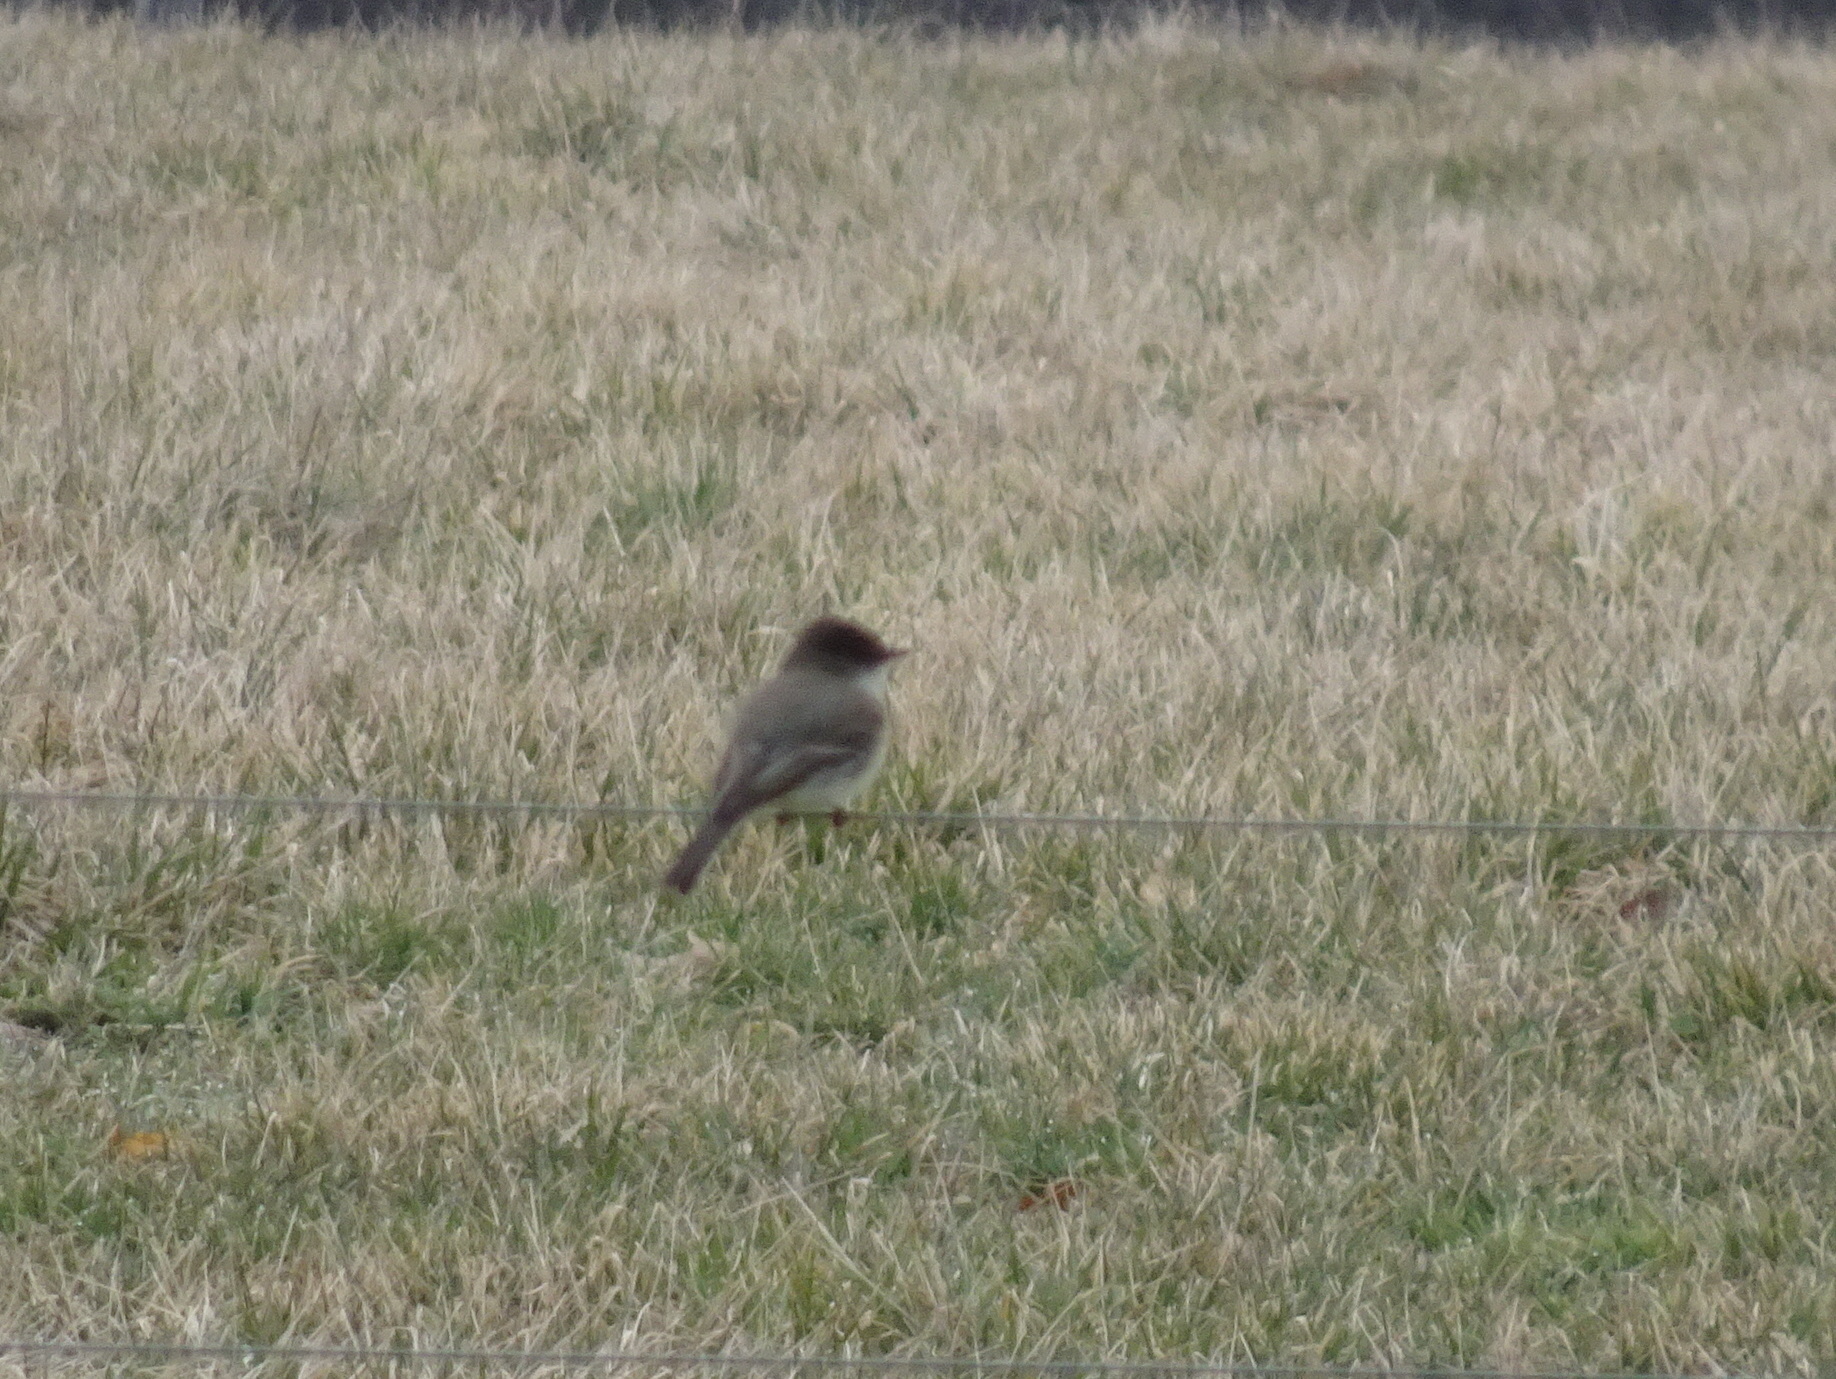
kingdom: Animalia
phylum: Chordata
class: Aves
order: Passeriformes
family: Tyrannidae
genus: Sayornis
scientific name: Sayornis phoebe
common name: Eastern phoebe
